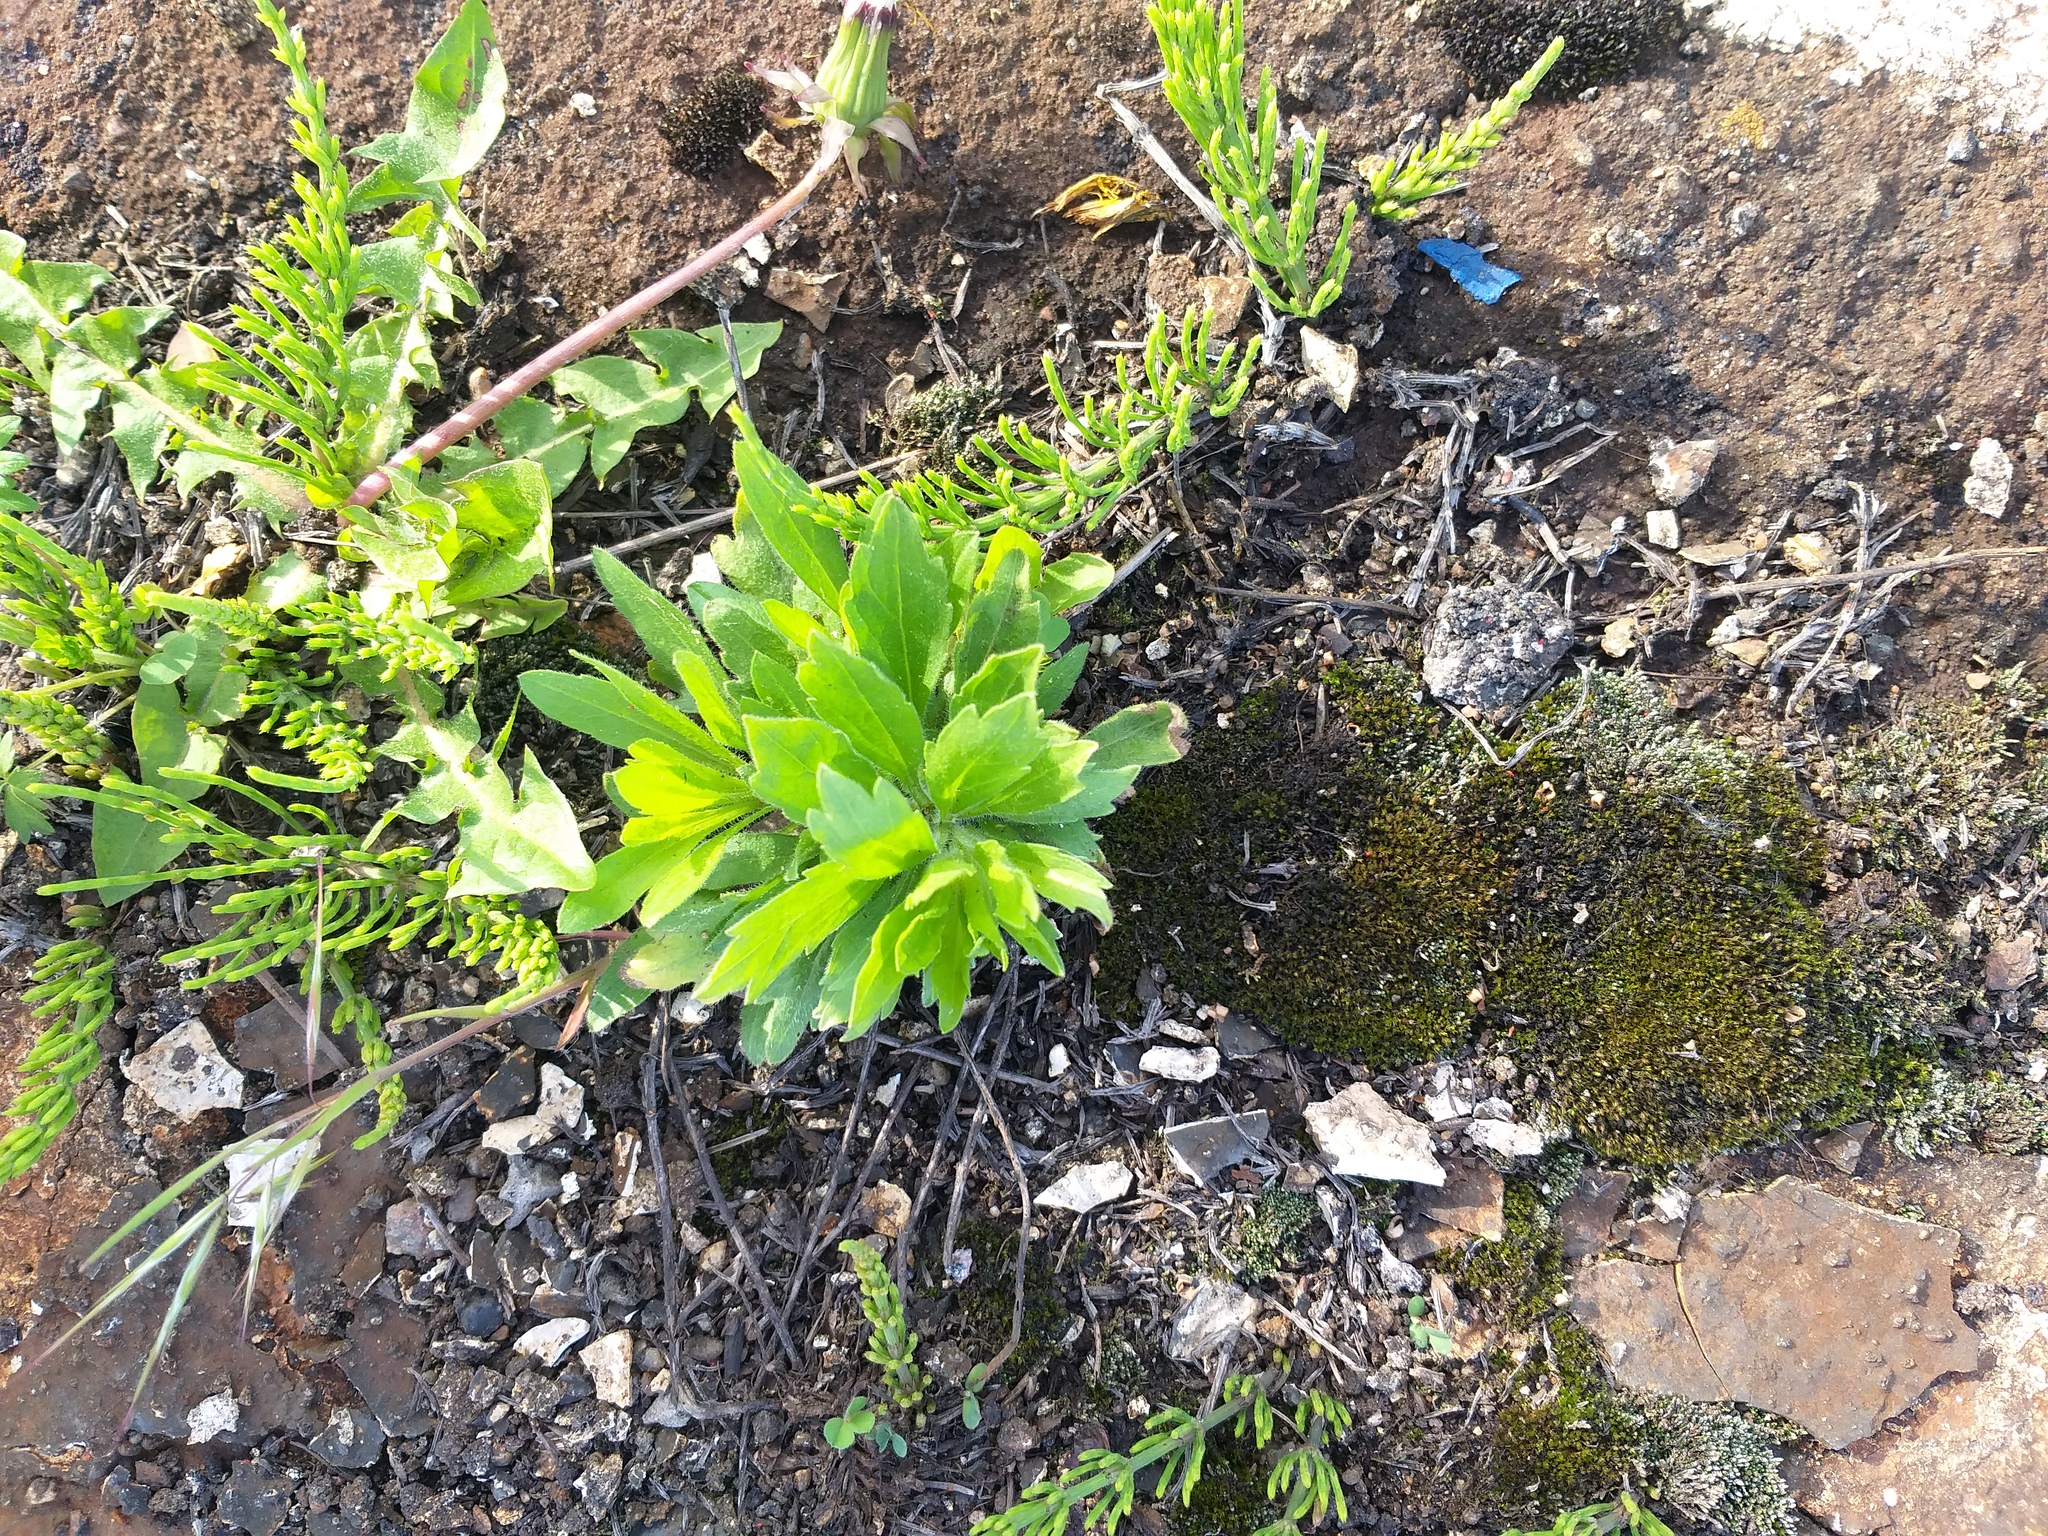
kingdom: Plantae
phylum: Tracheophyta
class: Magnoliopsida
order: Asterales
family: Asteraceae
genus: Erigeron
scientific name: Erigeron canadensis
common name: Canadian fleabane
